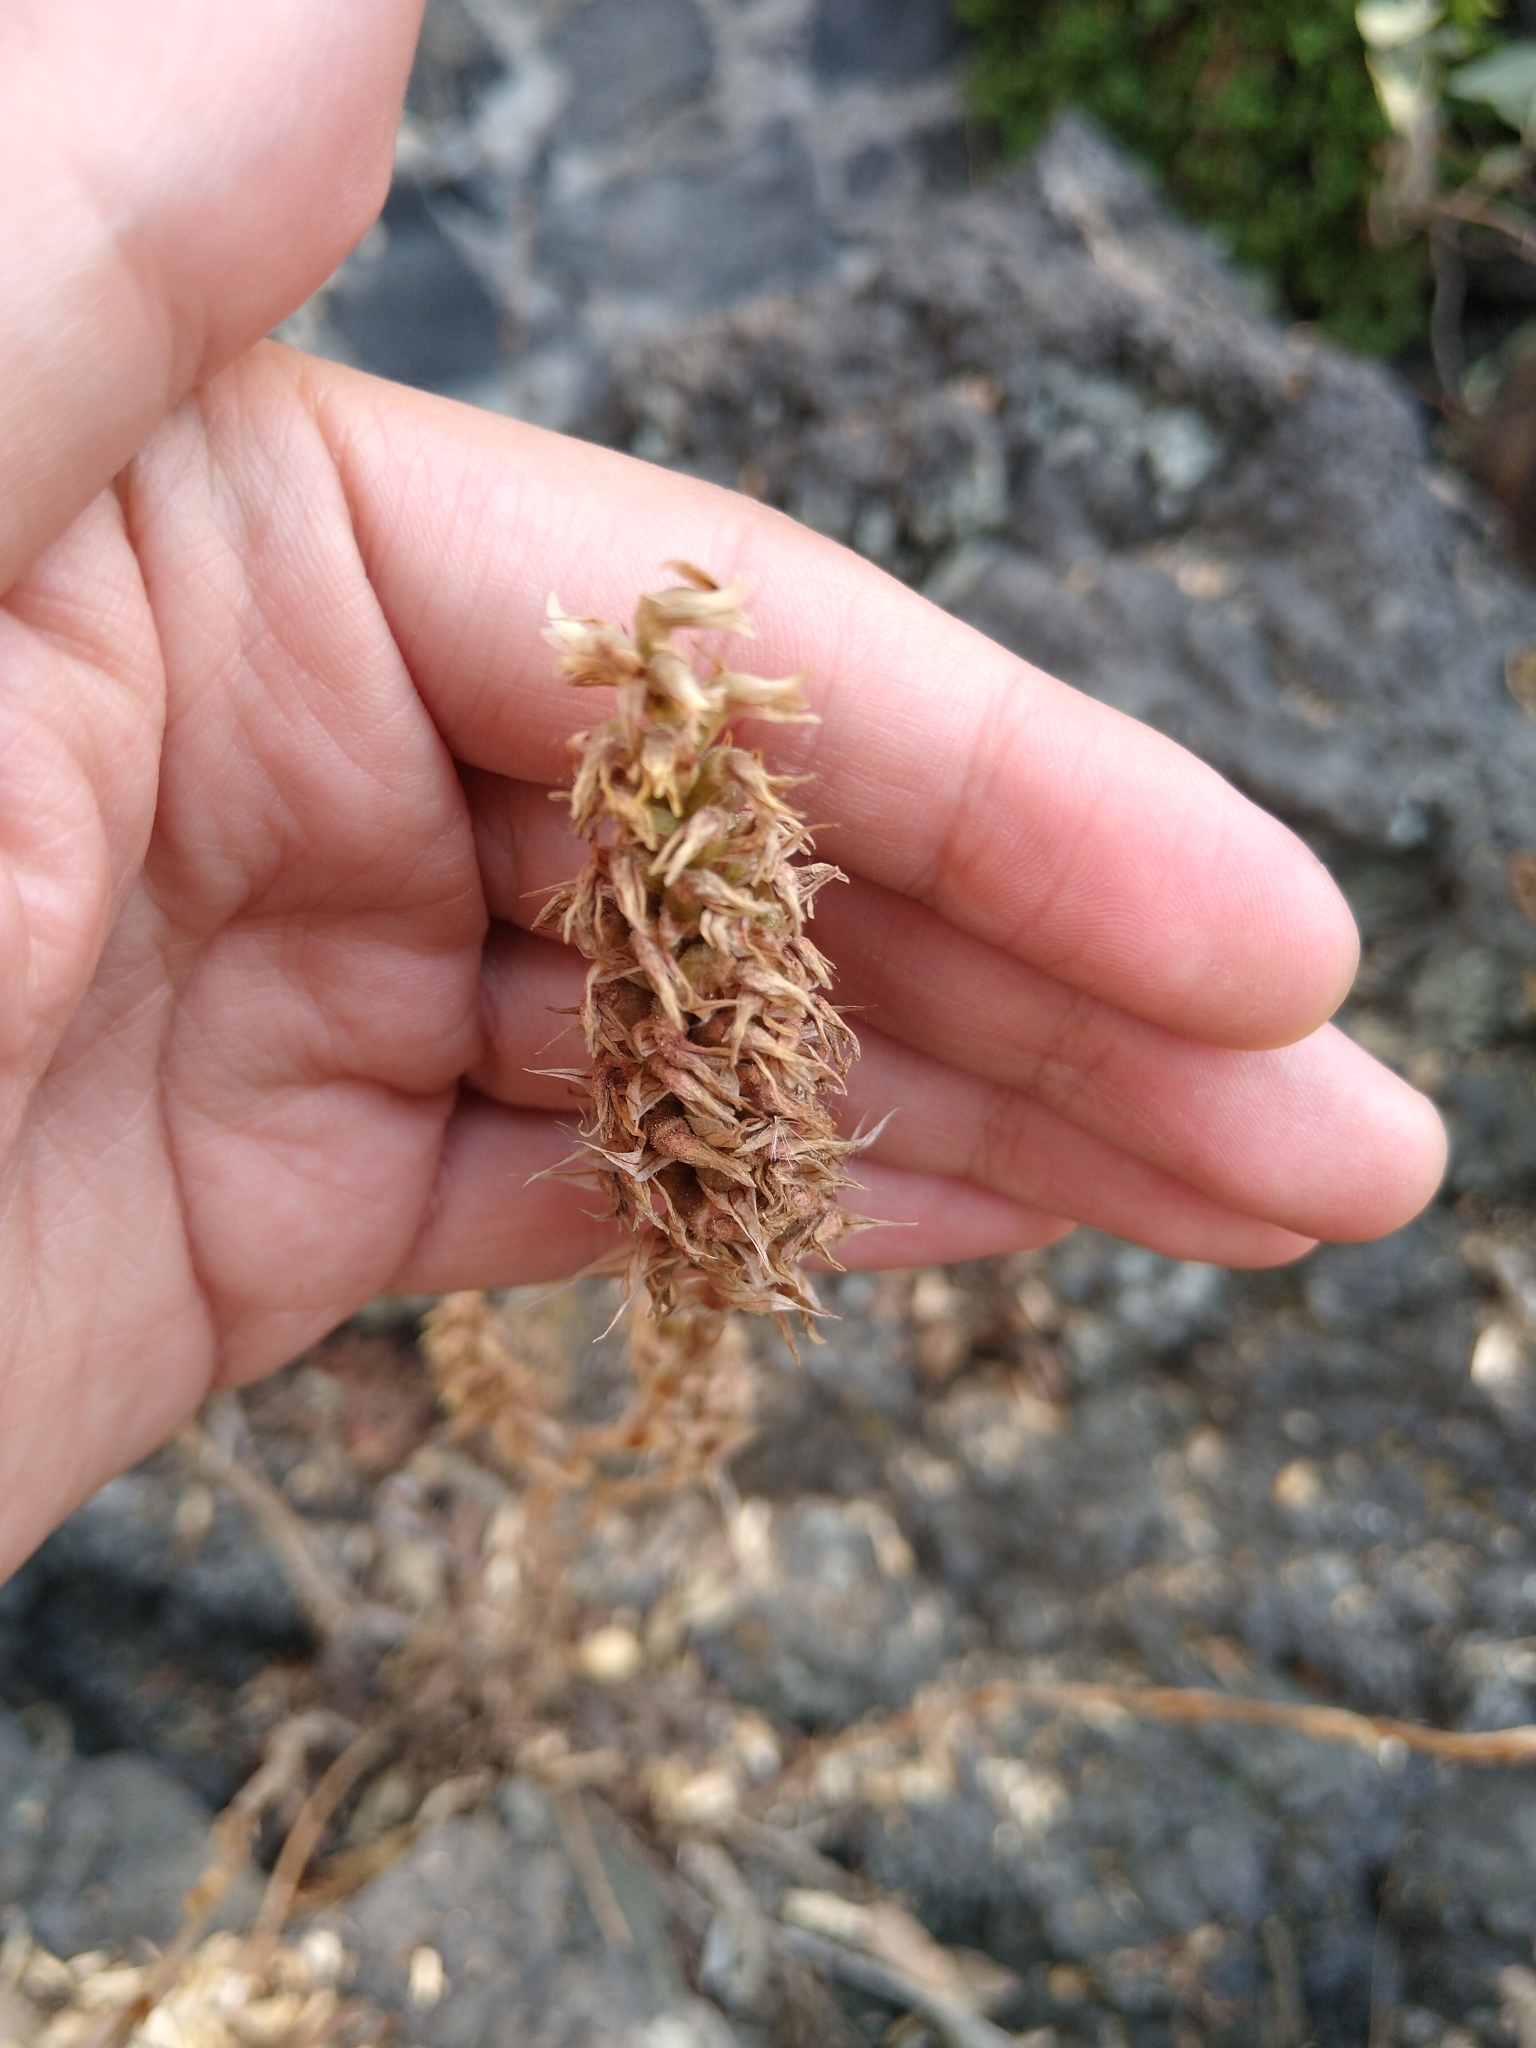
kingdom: Plantae
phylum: Tracheophyta
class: Liliopsida
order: Asparagales
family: Orchidaceae
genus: Aulosepalum
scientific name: Aulosepalum pyramidale
